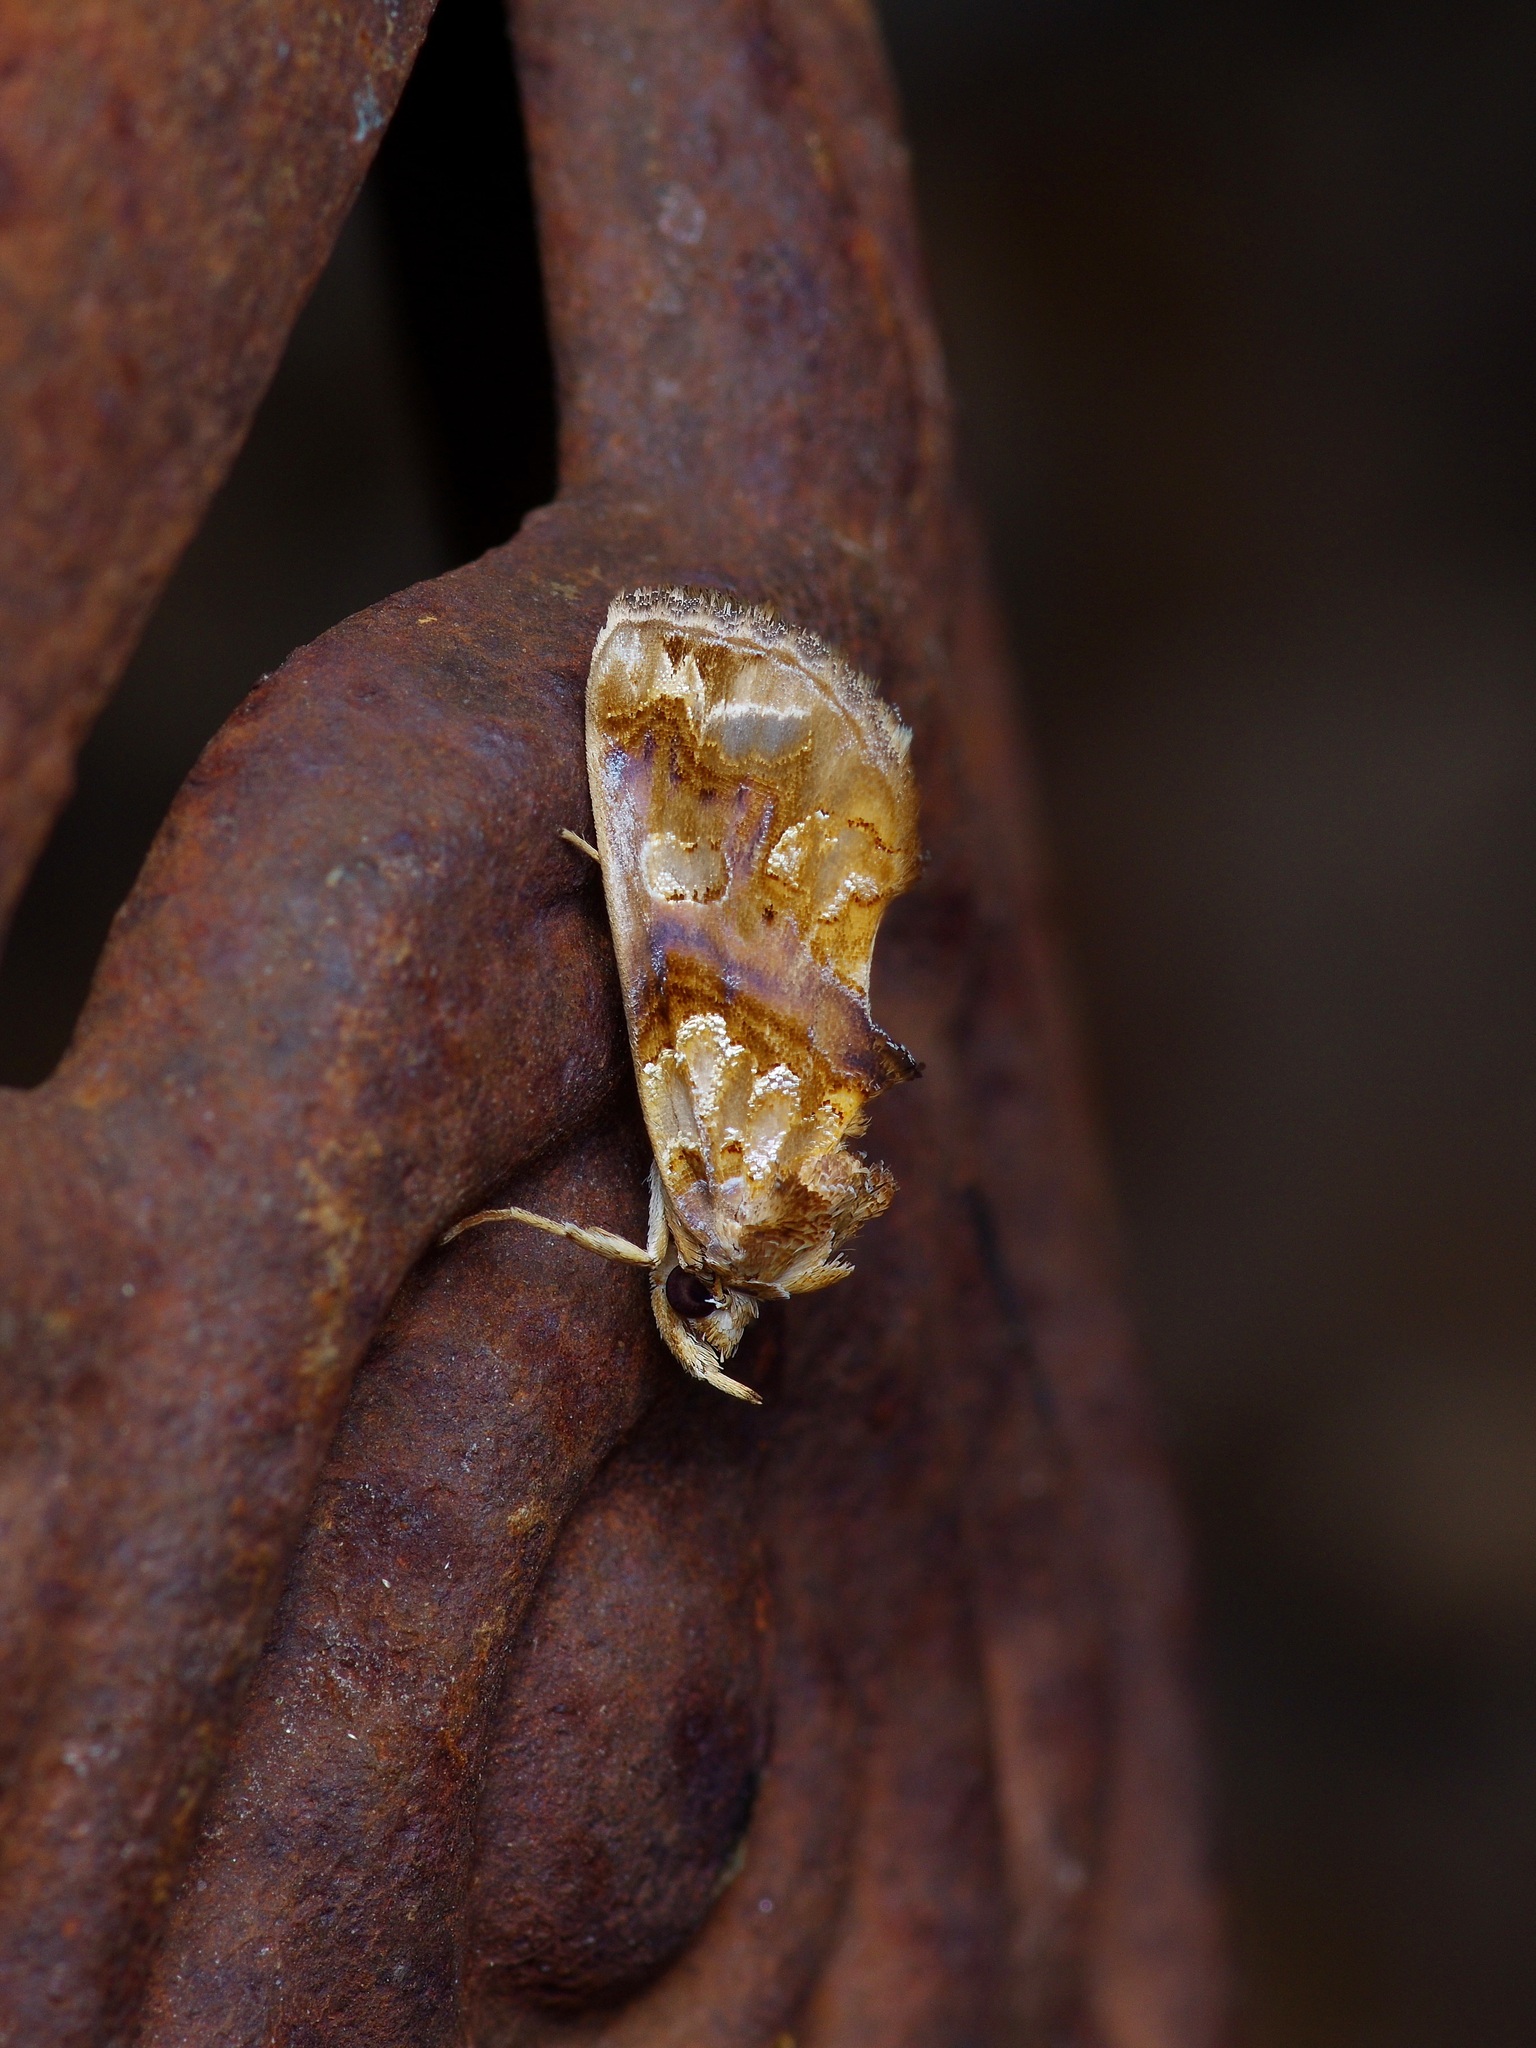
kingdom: Animalia
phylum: Arthropoda
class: Insecta
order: Lepidoptera
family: Erebidae
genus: Plusiodonta
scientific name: Plusiodonta compressipalpis
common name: Moonseed moth
